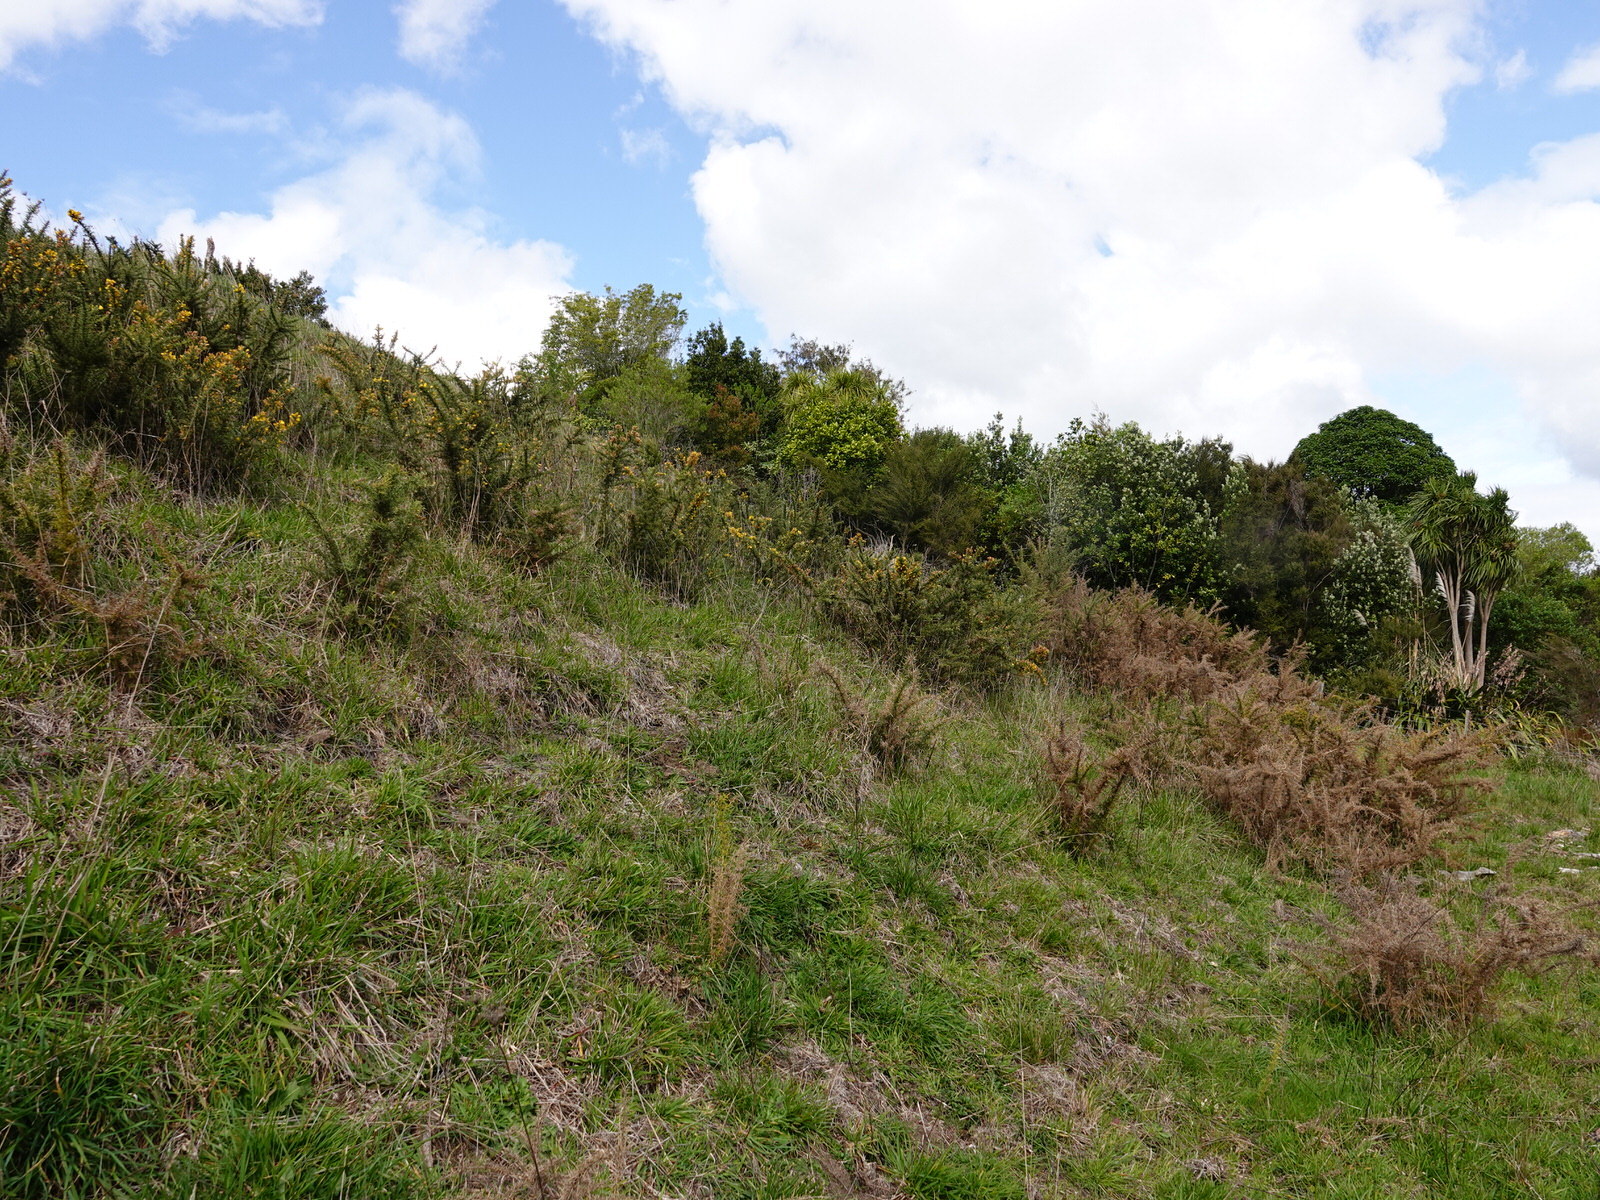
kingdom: Plantae
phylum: Tracheophyta
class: Magnoliopsida
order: Fabales
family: Fabaceae
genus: Ulex
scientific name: Ulex europaeus
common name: Common gorse
